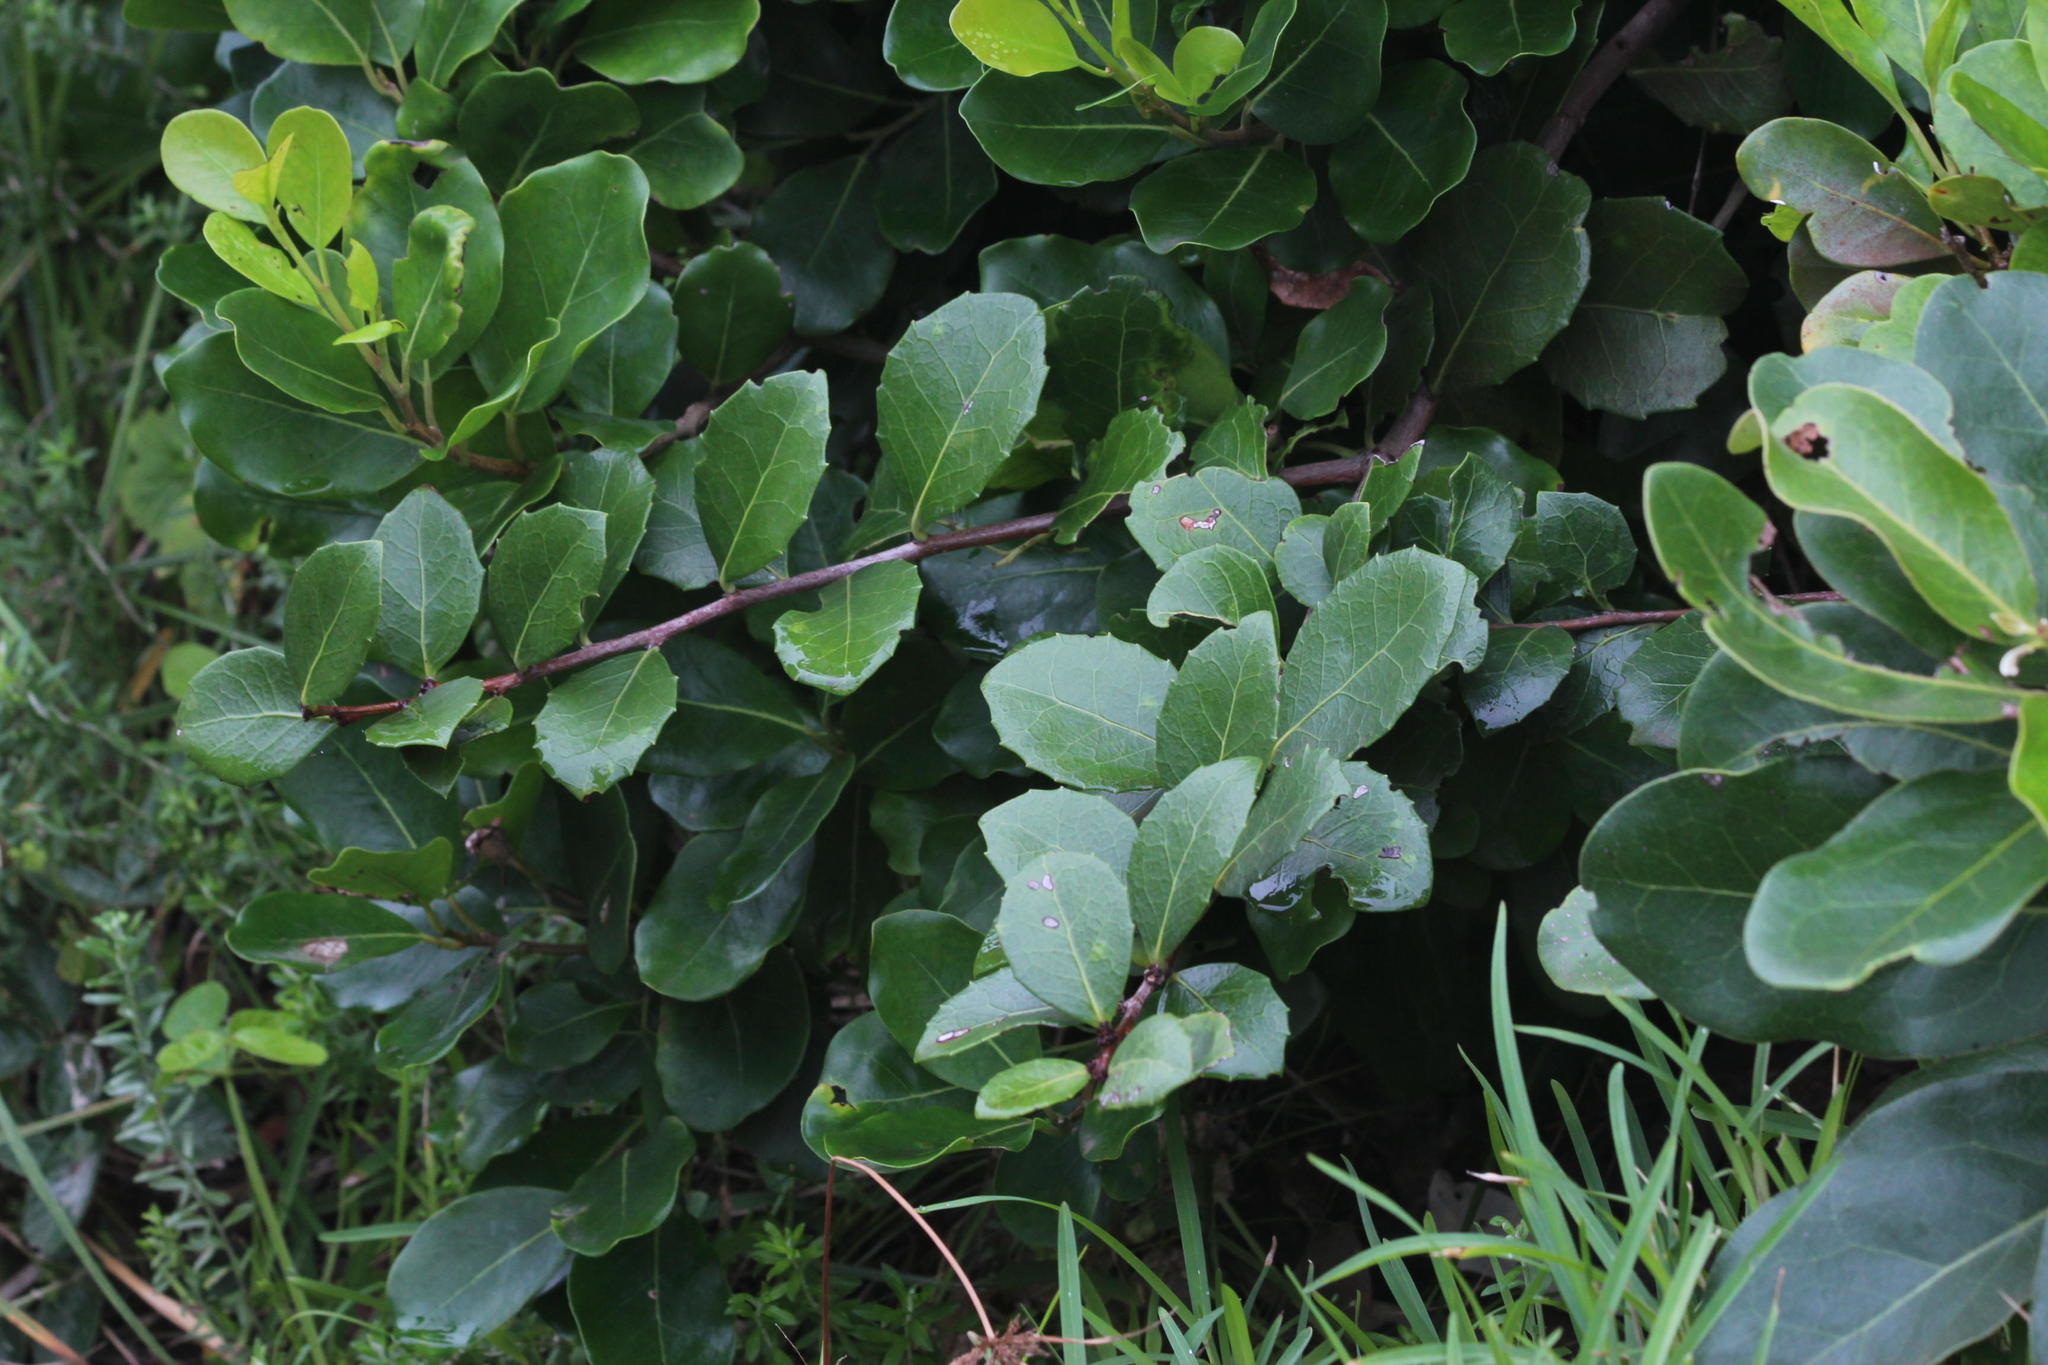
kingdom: Plantae
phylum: Tracheophyta
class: Magnoliopsida
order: Celastrales
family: Celastraceae
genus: Gymnosporia
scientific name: Gymnosporia procumbens
